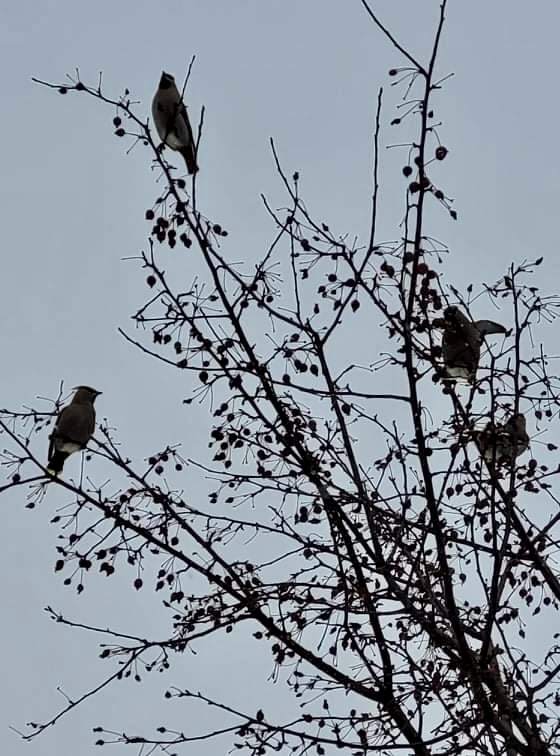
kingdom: Animalia
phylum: Chordata
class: Aves
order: Passeriformes
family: Bombycillidae
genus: Bombycilla
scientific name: Bombycilla garrulus
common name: Bohemian waxwing
